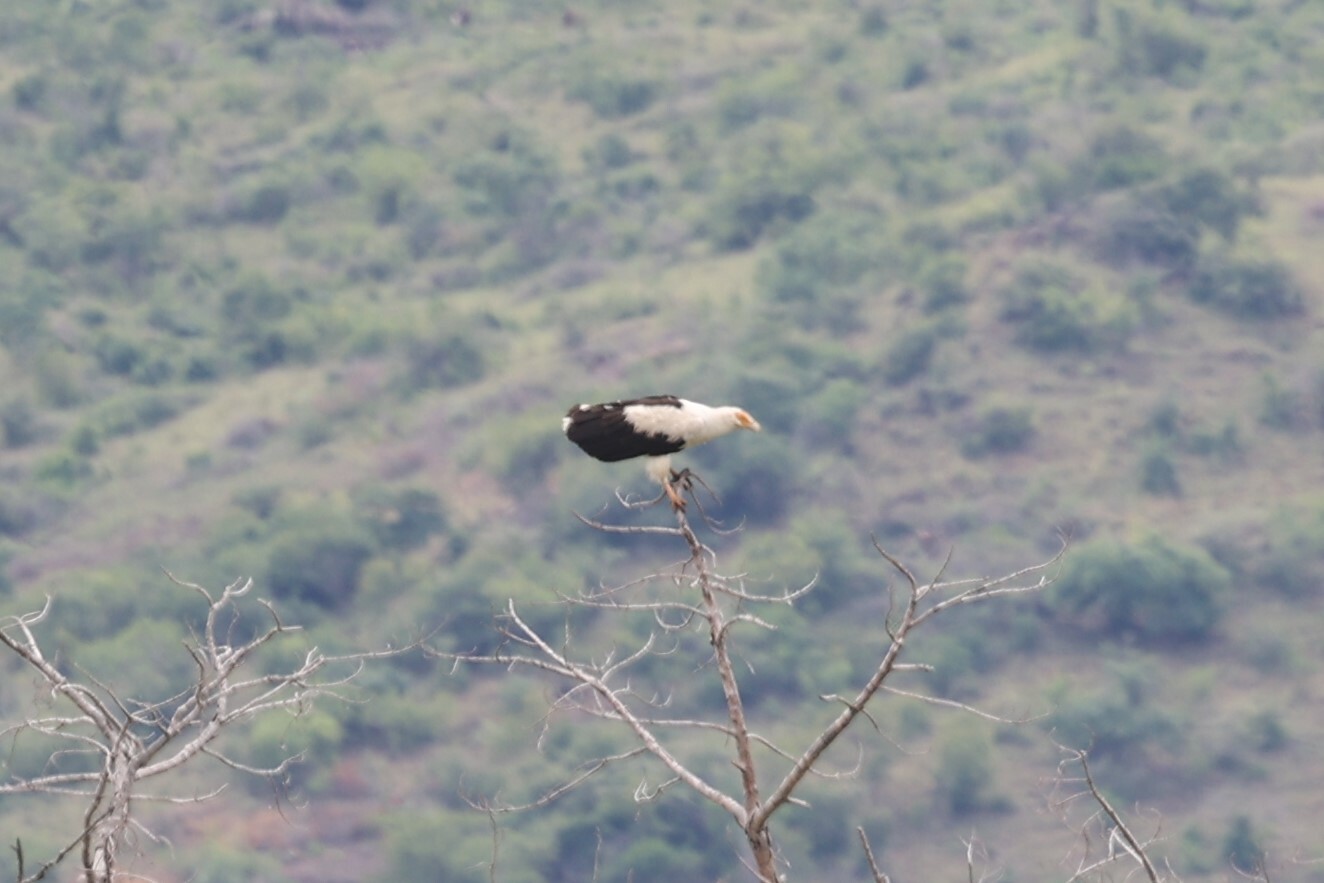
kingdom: Animalia
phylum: Chordata
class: Aves
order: Accipitriformes
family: Accipitridae
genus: Gypohierax
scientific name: Gypohierax angolensis
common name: Palm-nut vulture
